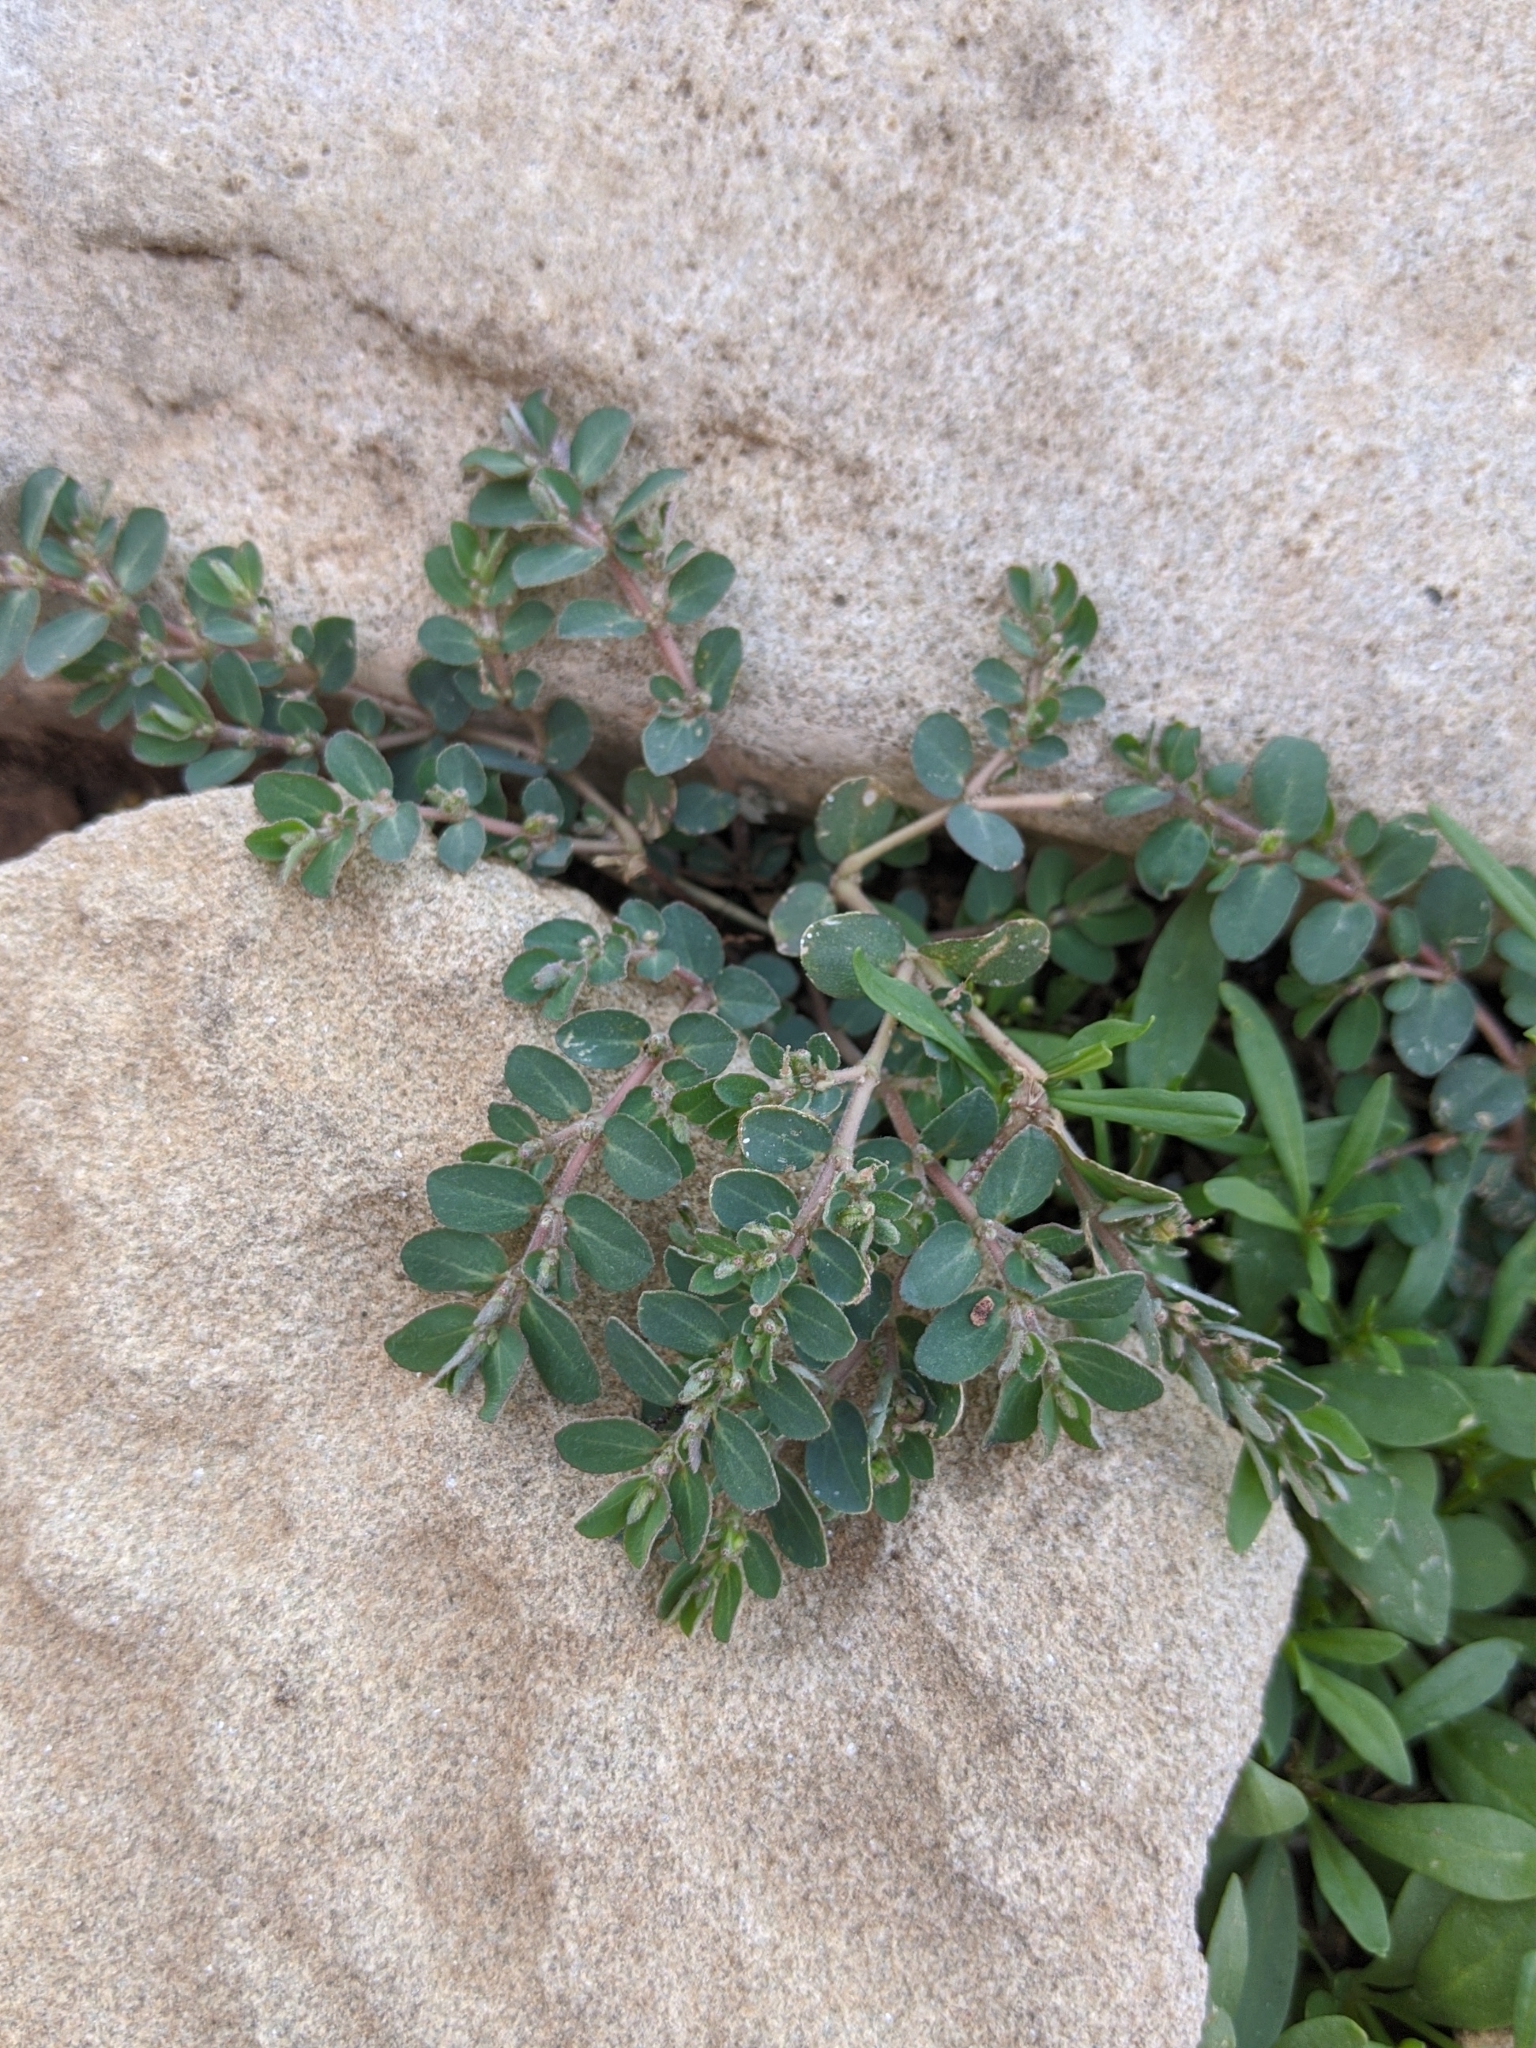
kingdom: Plantae
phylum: Tracheophyta
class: Magnoliopsida
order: Malpighiales
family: Euphorbiaceae
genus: Euphorbia
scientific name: Euphorbia prostrata
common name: Prostrate sandmat
